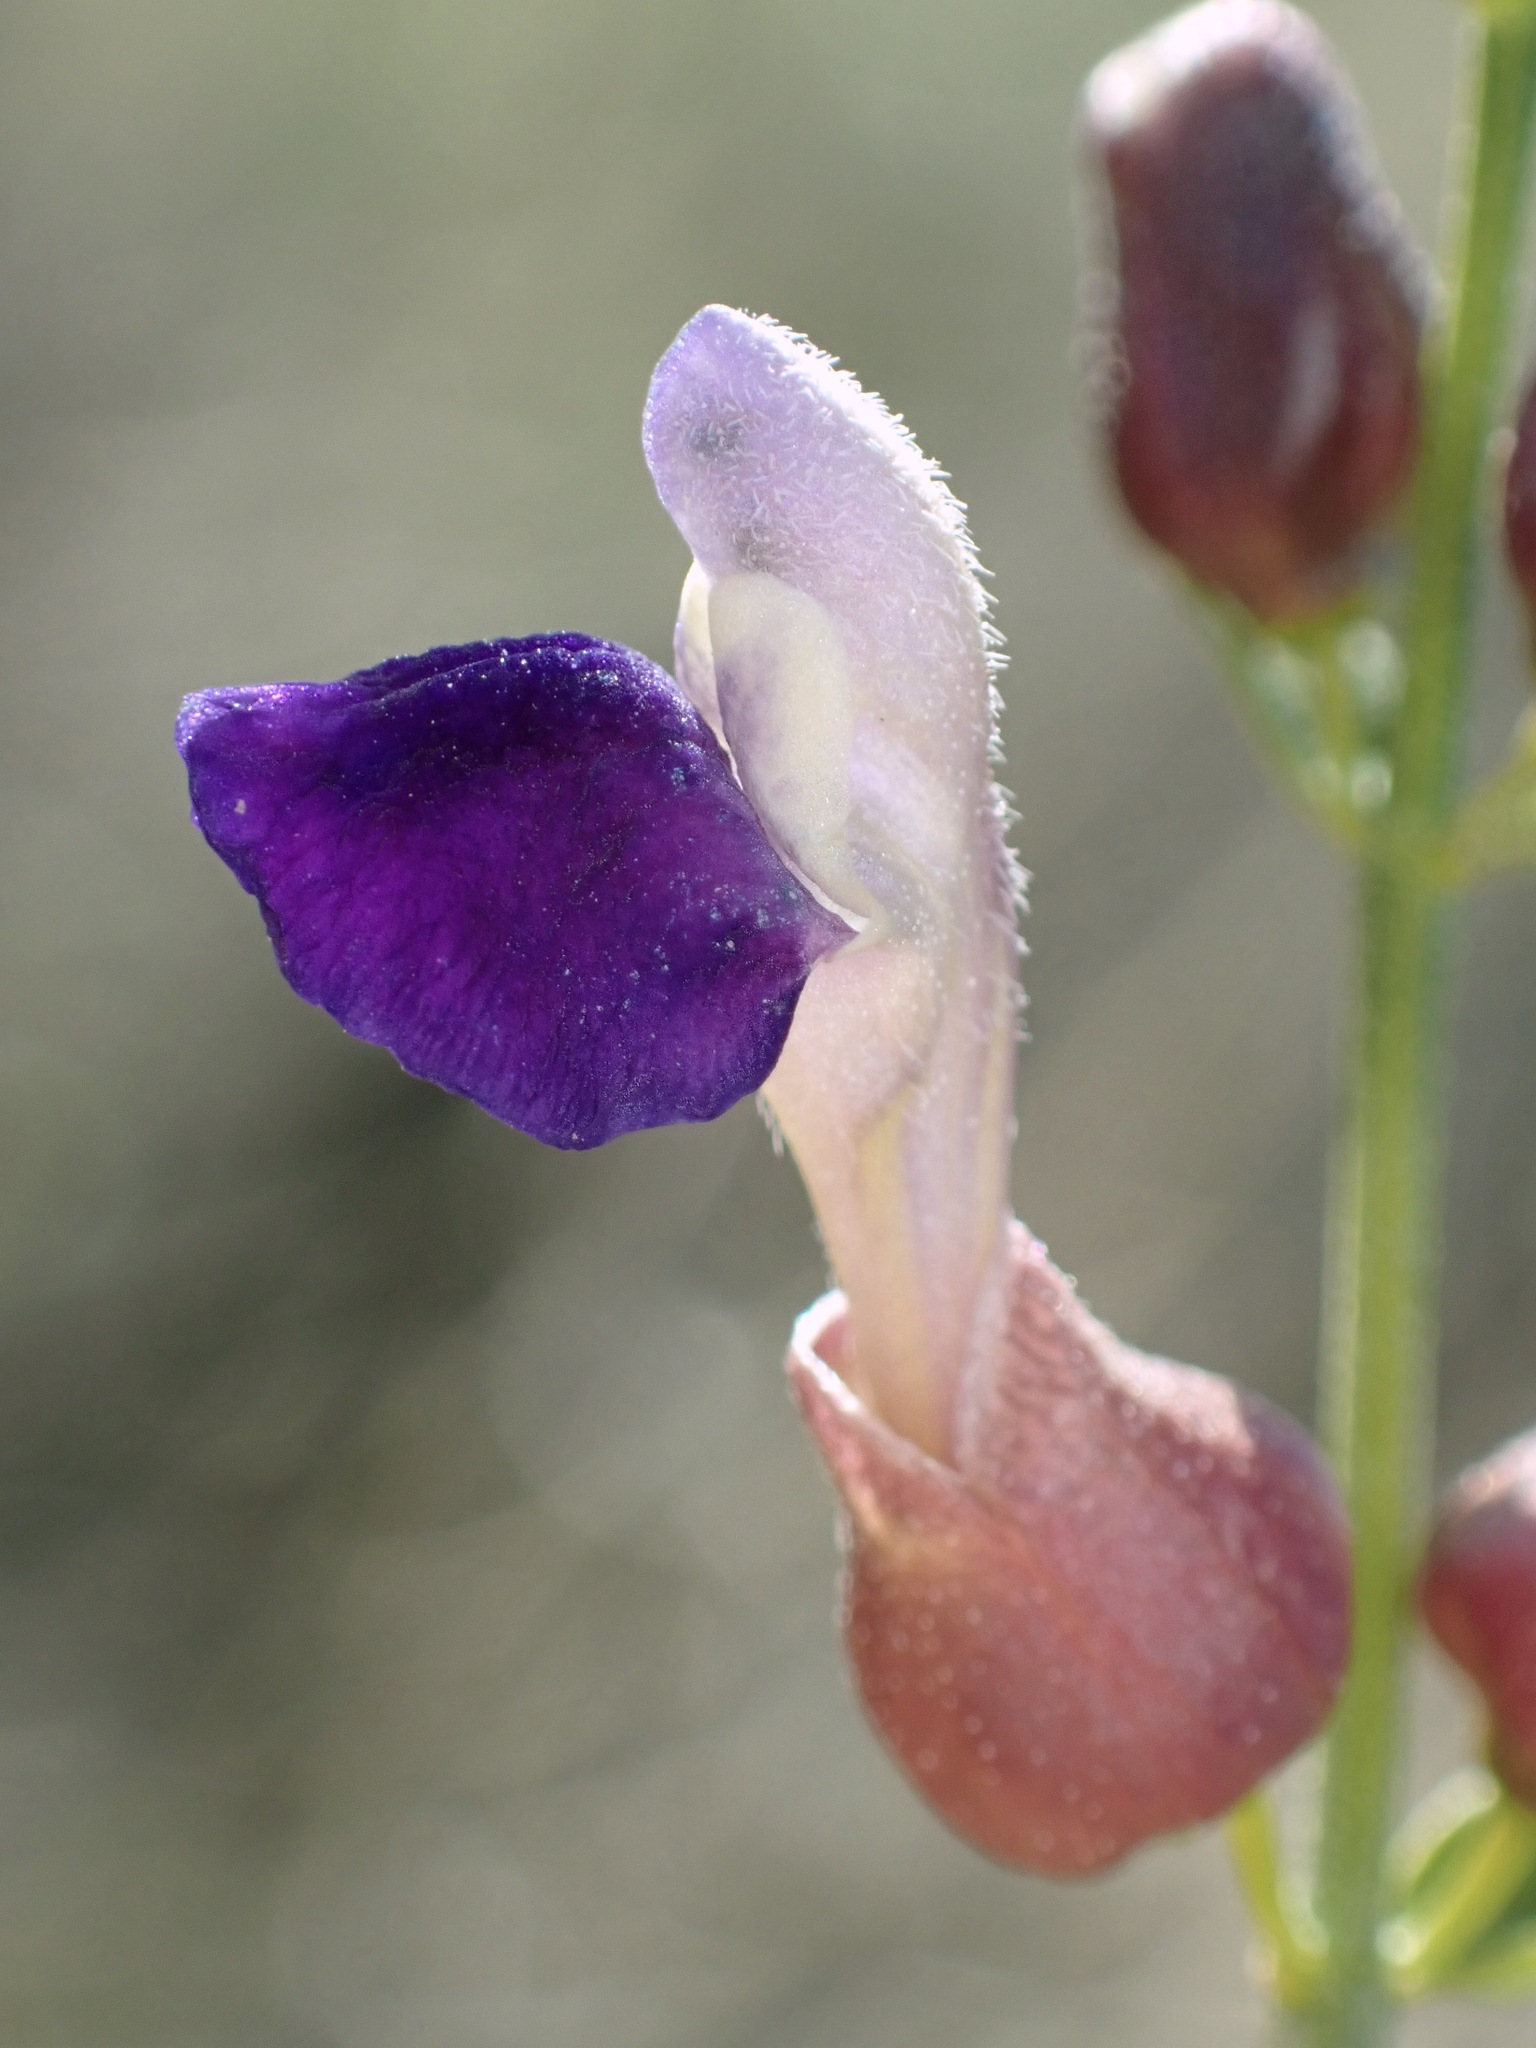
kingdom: Plantae
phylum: Tracheophyta
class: Magnoliopsida
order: Lamiales
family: Lamiaceae
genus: Scutellaria
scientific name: Scutellaria mexicana
